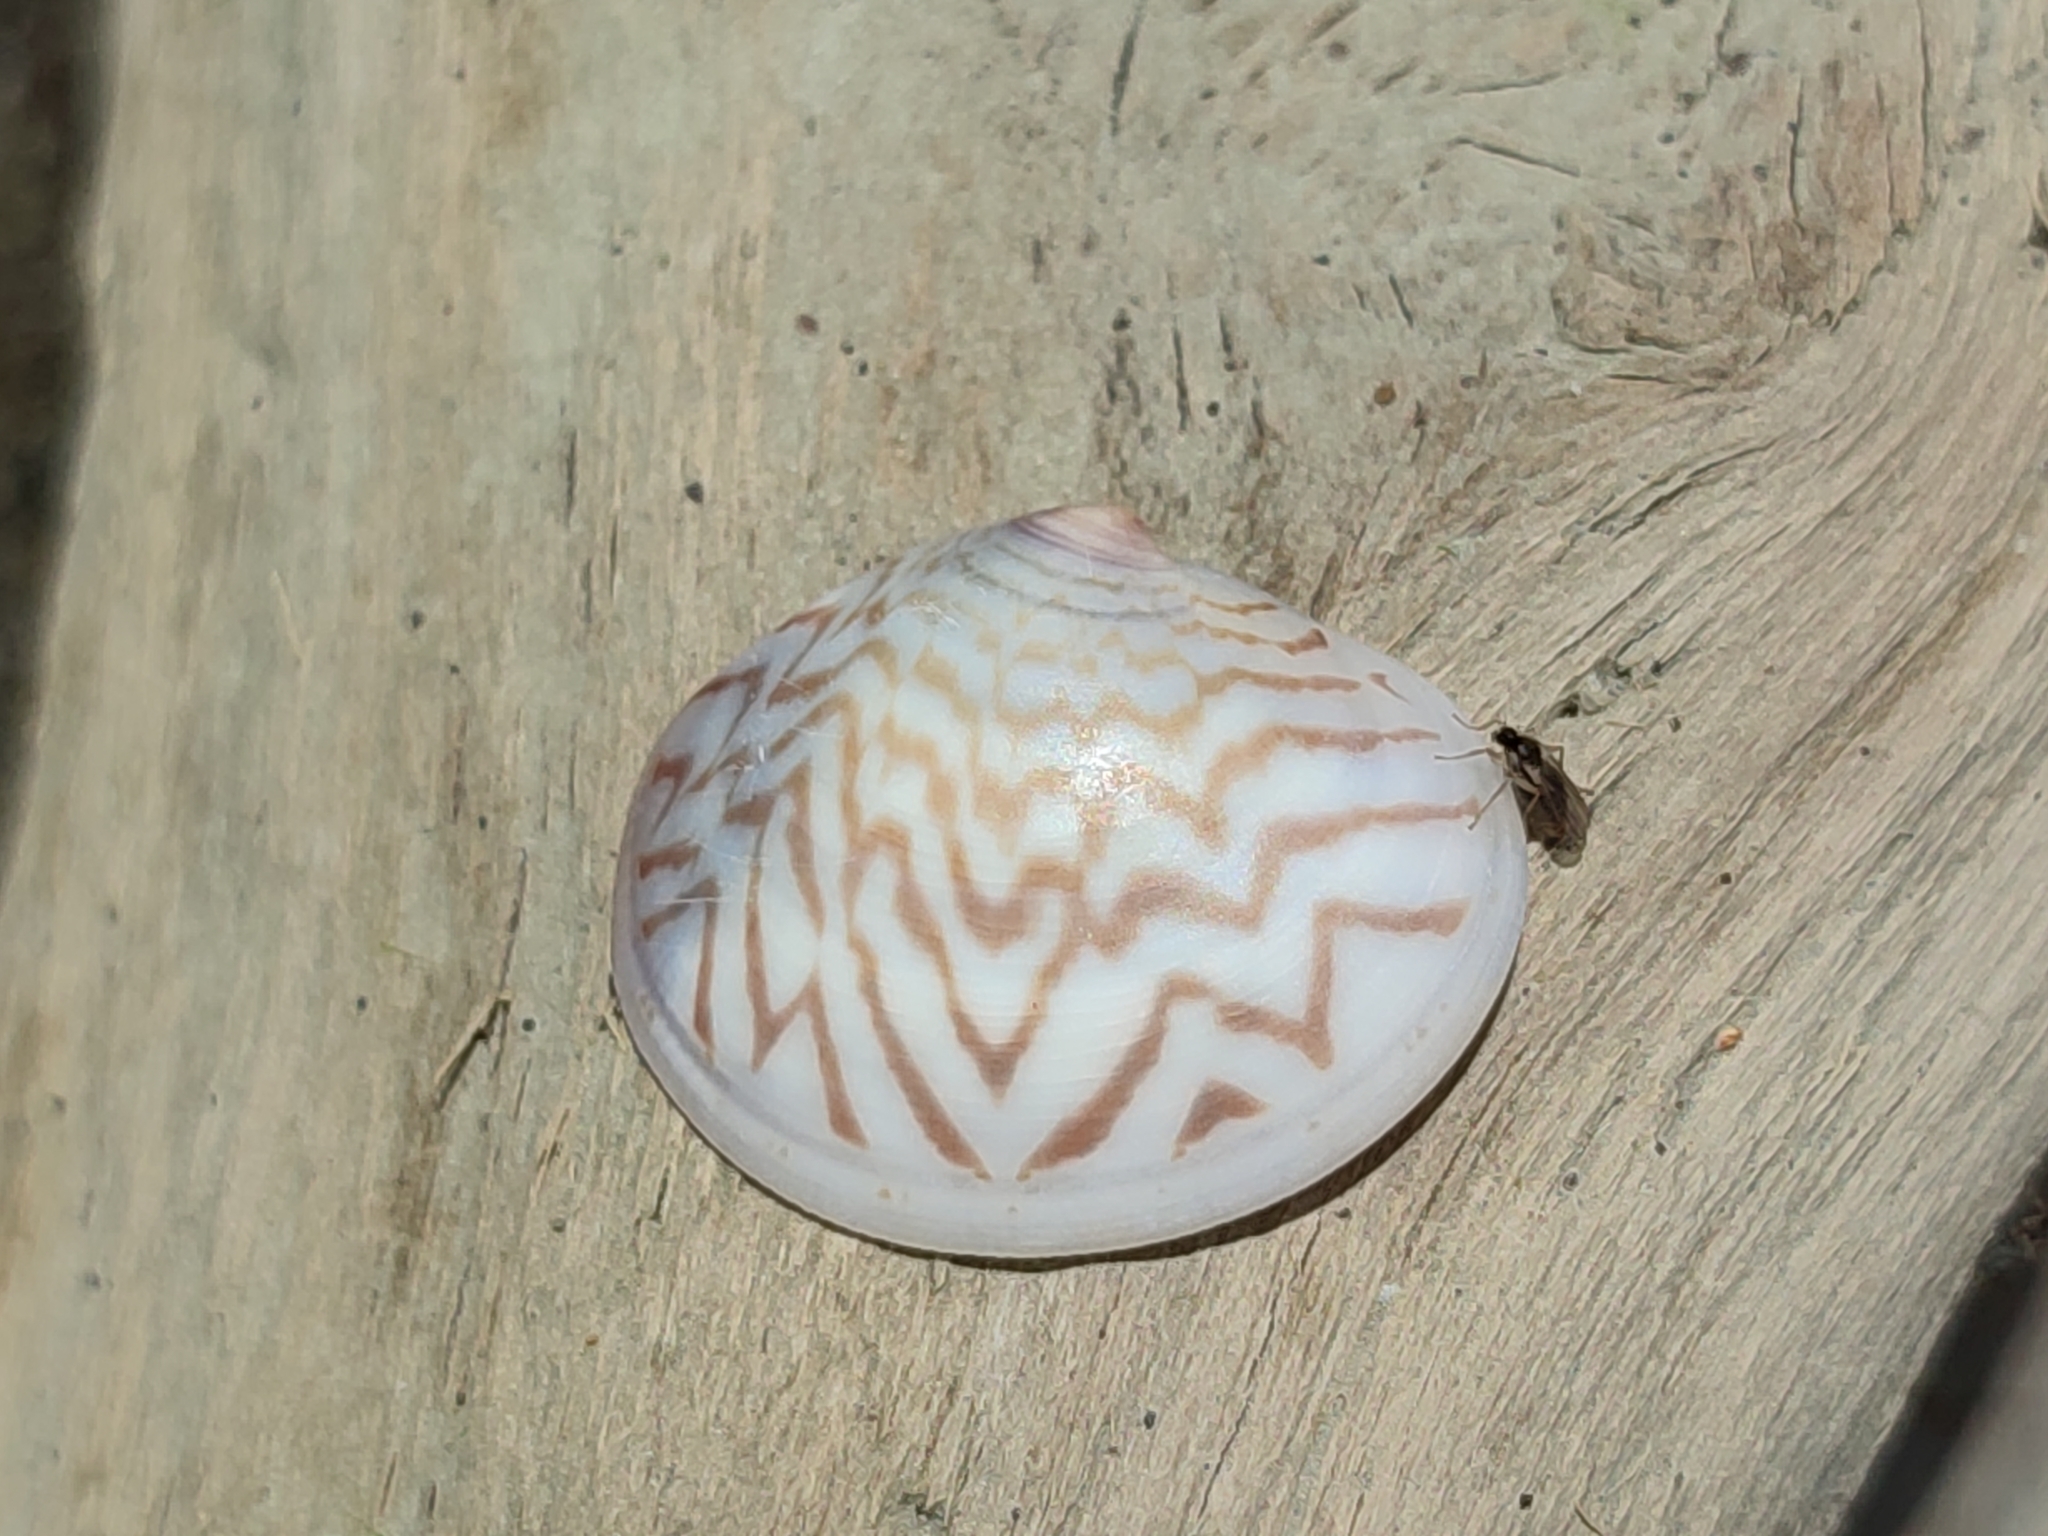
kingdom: Animalia
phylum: Mollusca
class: Bivalvia
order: Venerida
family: Veneridae
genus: Sunetta
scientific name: Sunetta scripta
